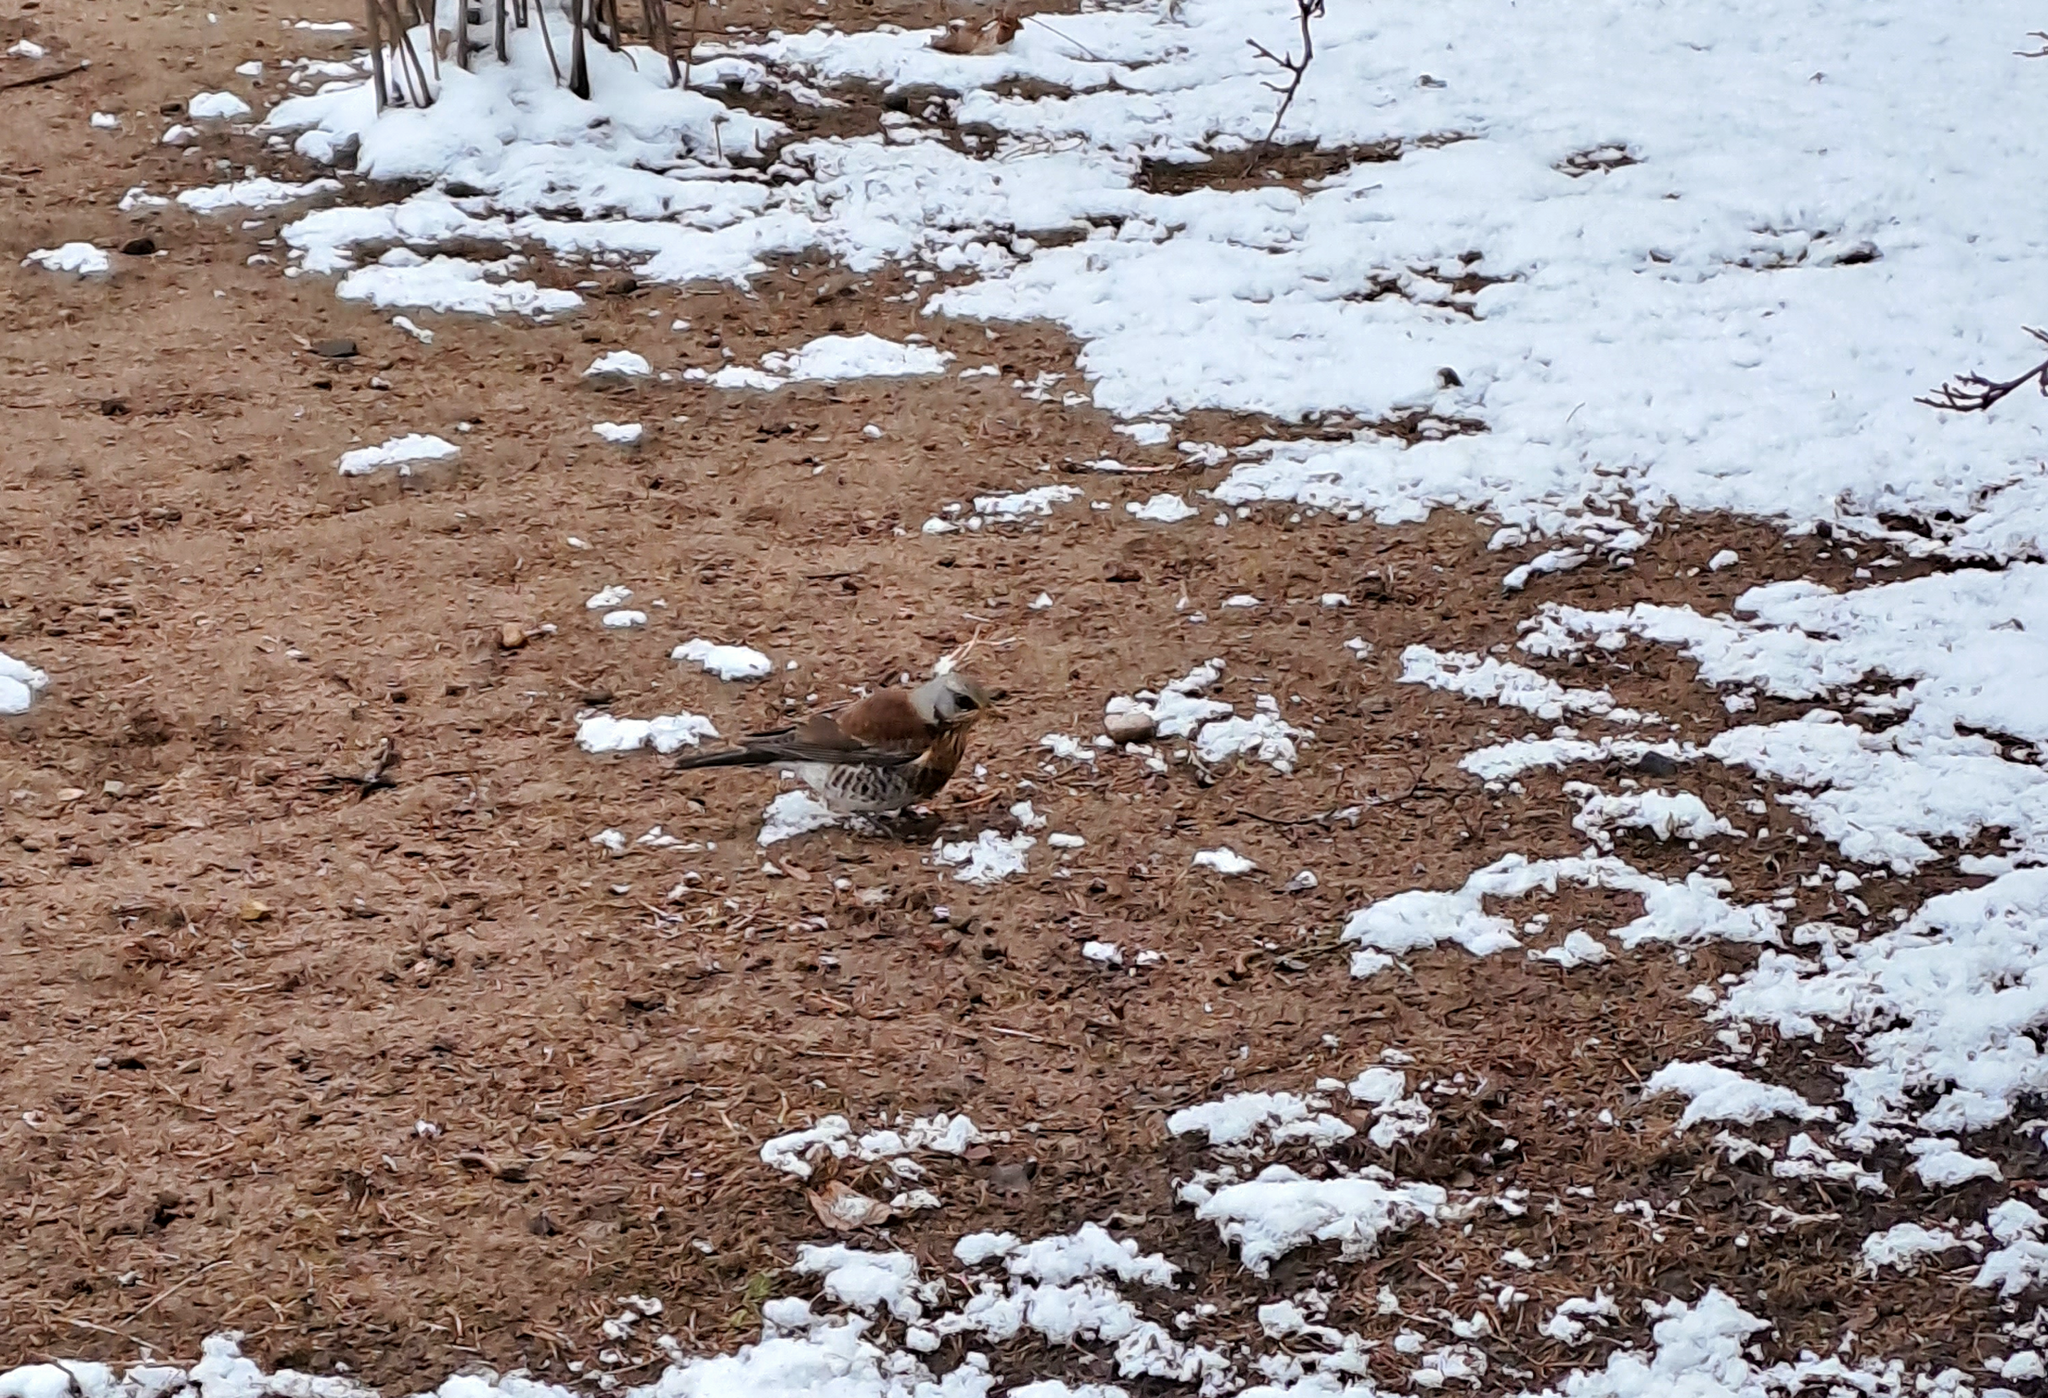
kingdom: Animalia
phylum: Chordata
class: Aves
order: Passeriformes
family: Turdidae
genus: Turdus
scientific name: Turdus pilaris
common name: Fieldfare
